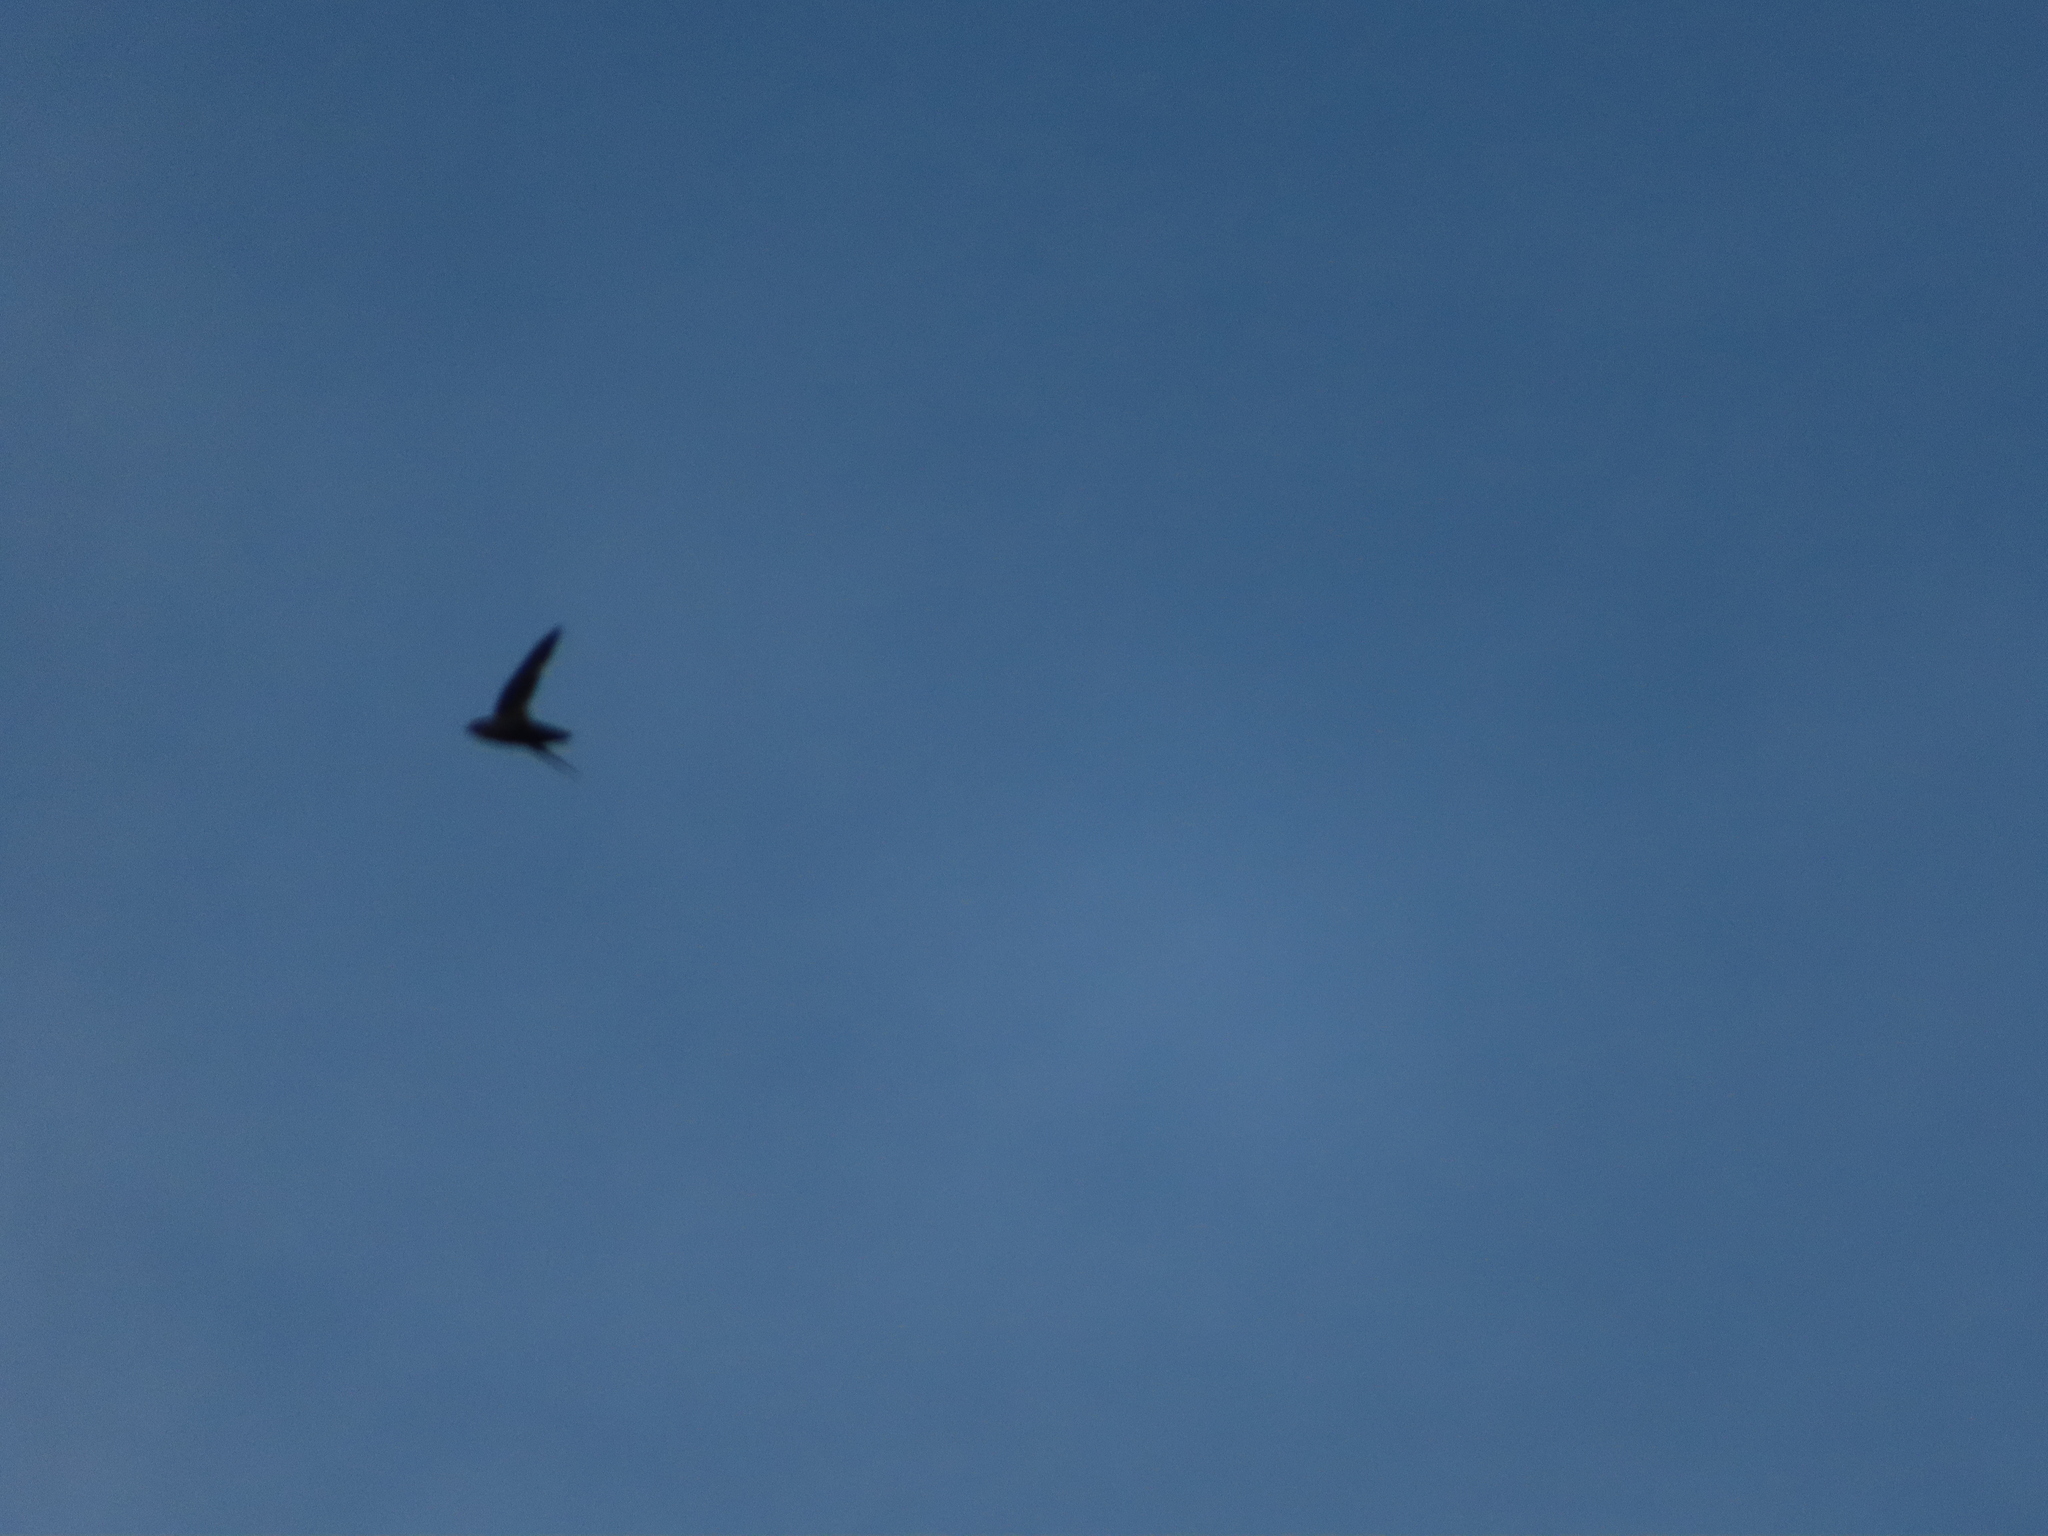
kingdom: Animalia
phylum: Chordata
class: Aves
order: Apodiformes
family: Apodidae
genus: Chaetura
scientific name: Chaetura pelagica
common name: Chimney swift
